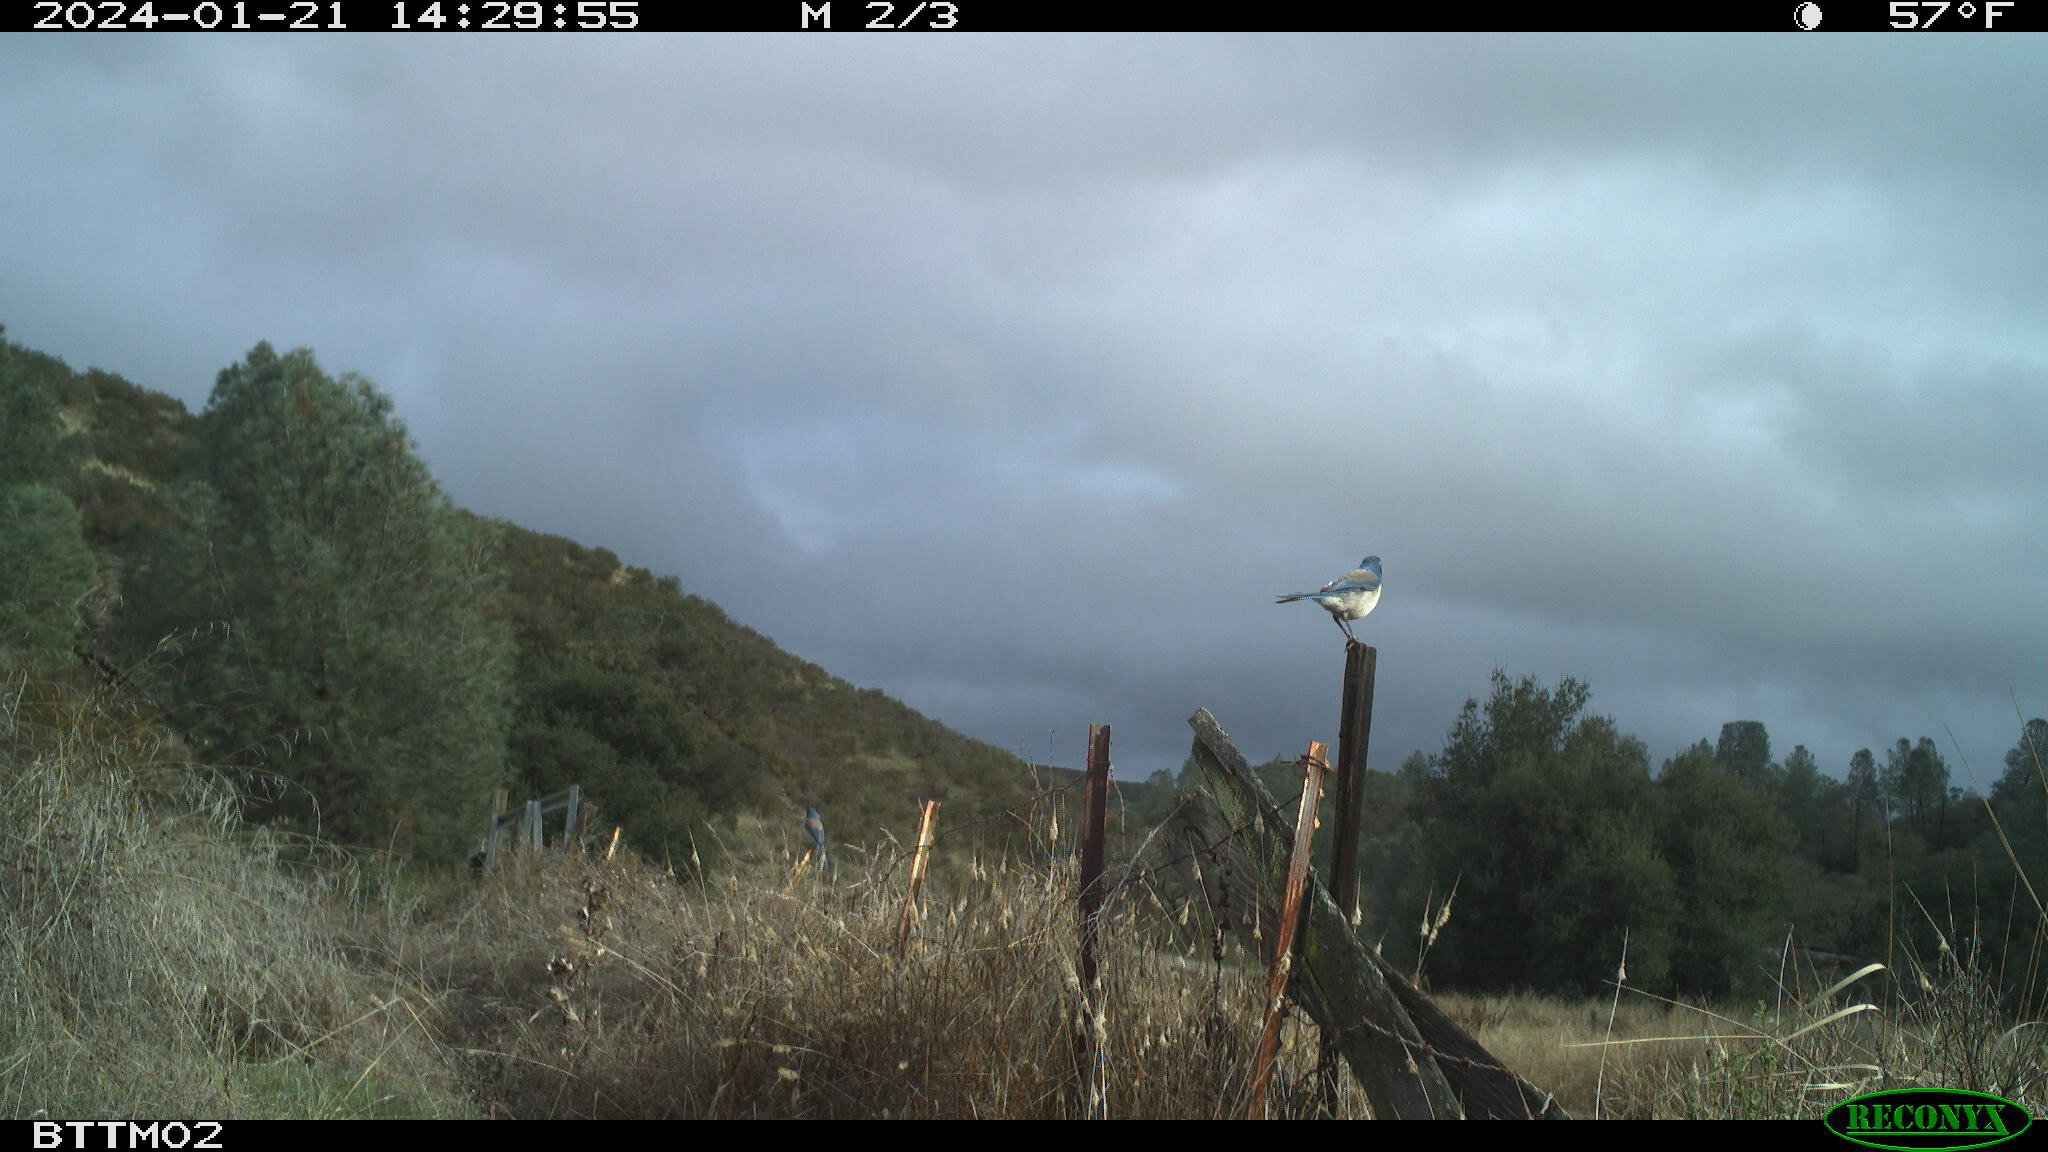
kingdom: Animalia
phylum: Chordata
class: Aves
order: Passeriformes
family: Corvidae
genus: Aphelocoma
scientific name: Aphelocoma californica
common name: California scrub-jay
